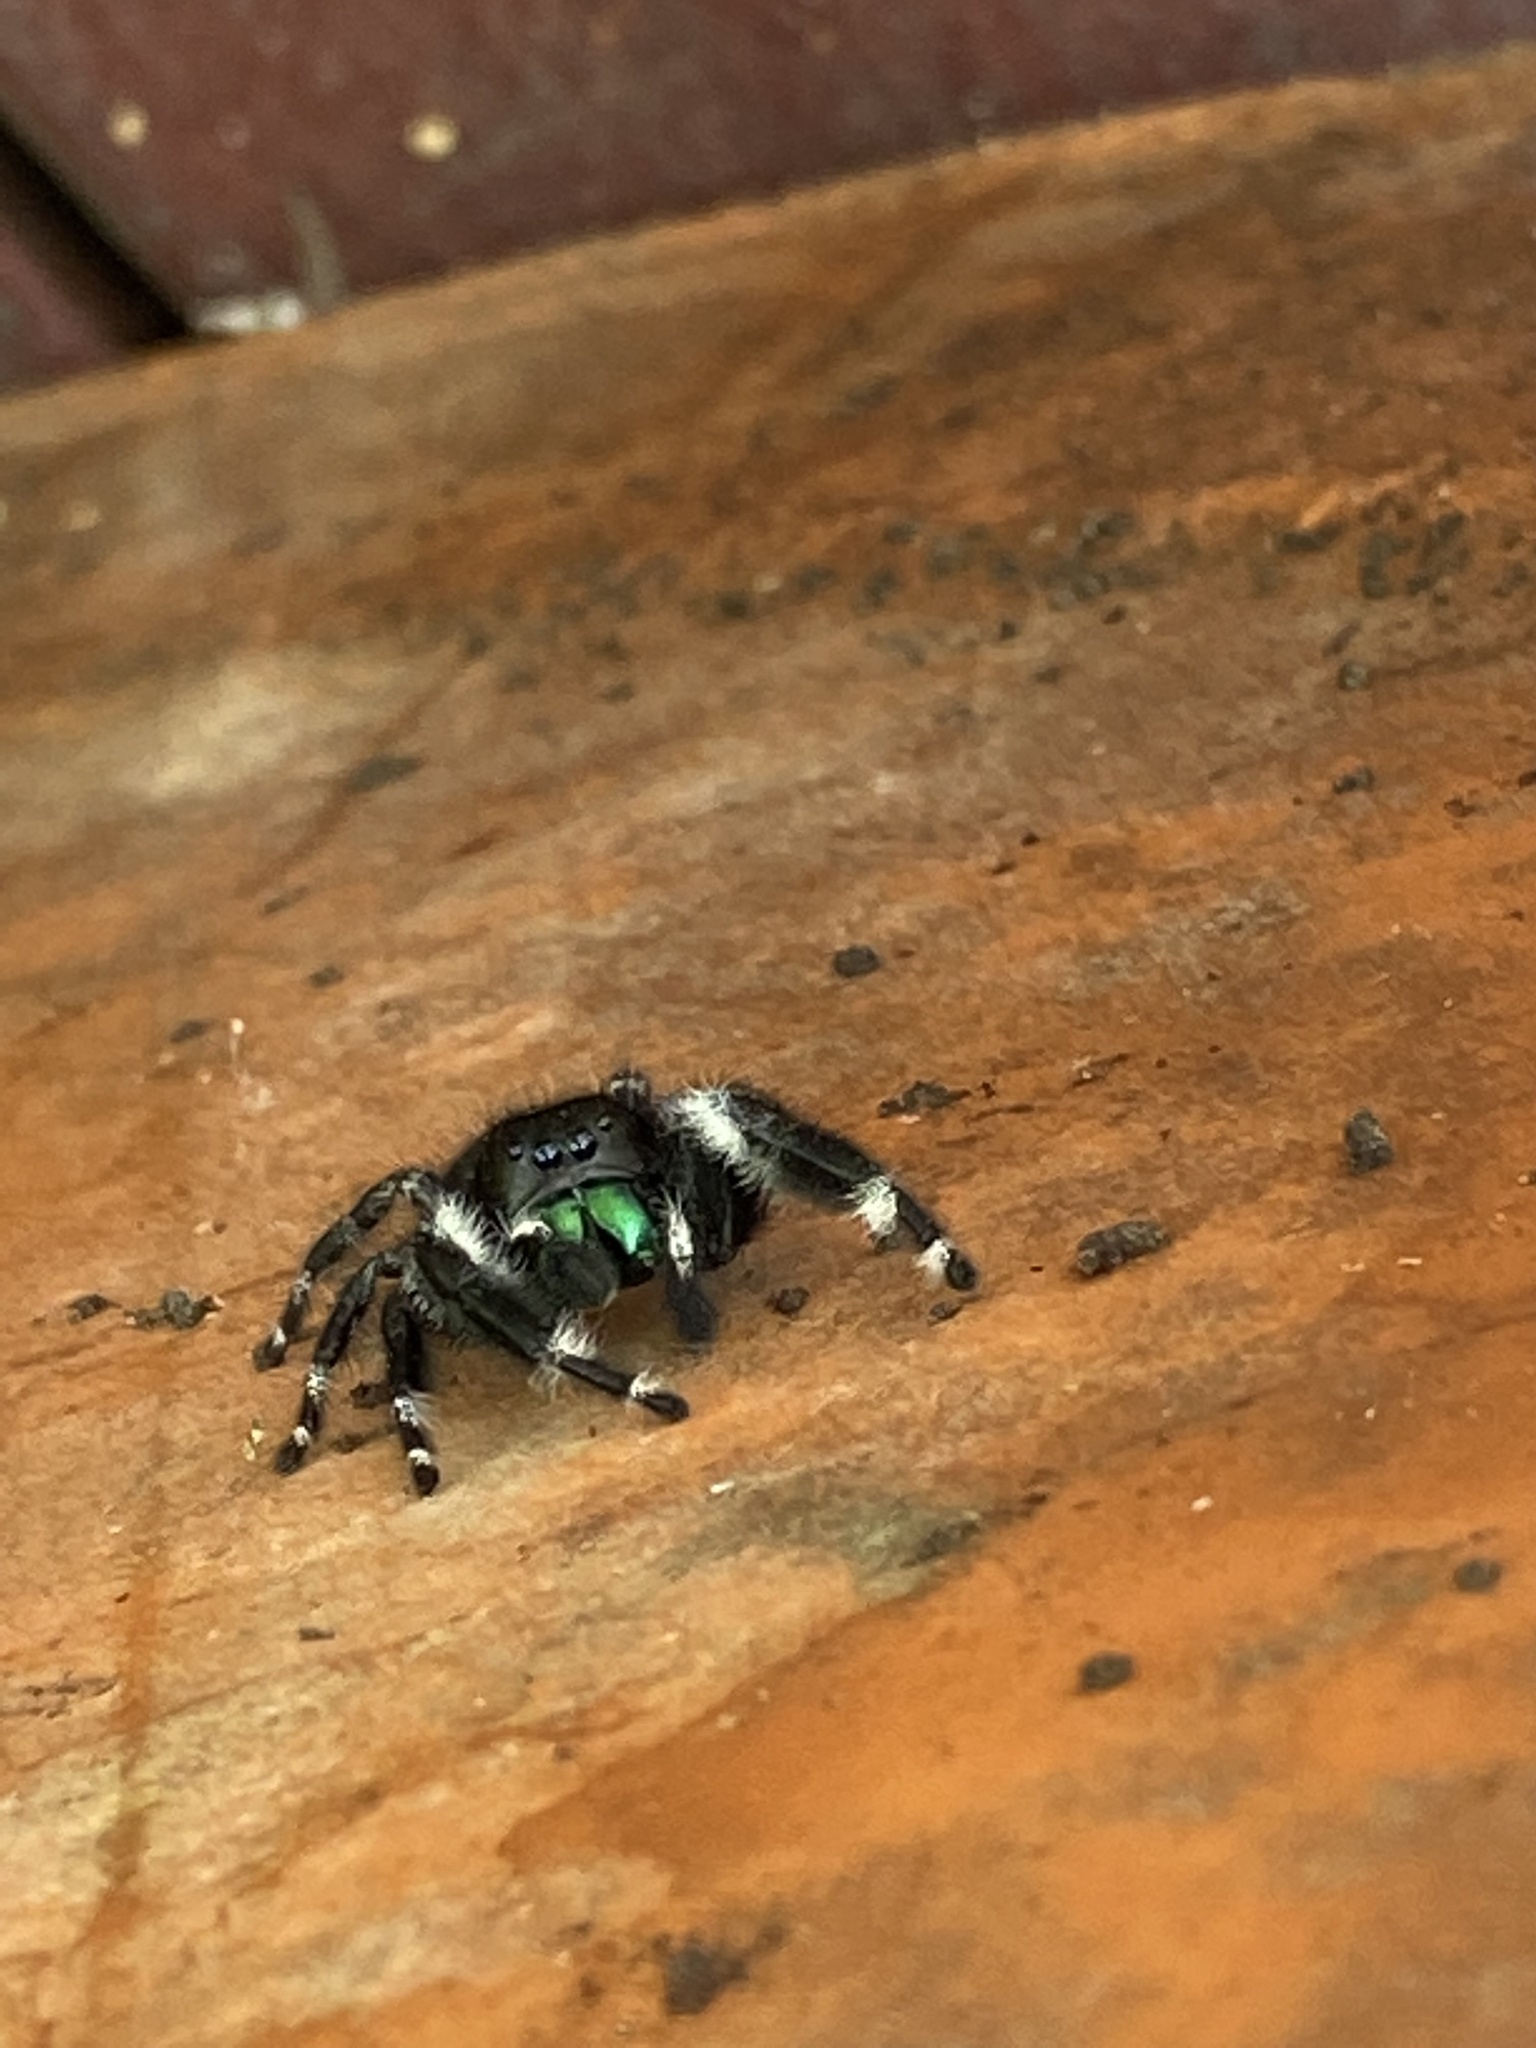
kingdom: Animalia
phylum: Arthropoda
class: Arachnida
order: Araneae
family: Salticidae
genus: Phidippus
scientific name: Phidippus audax
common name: Bold jumper
